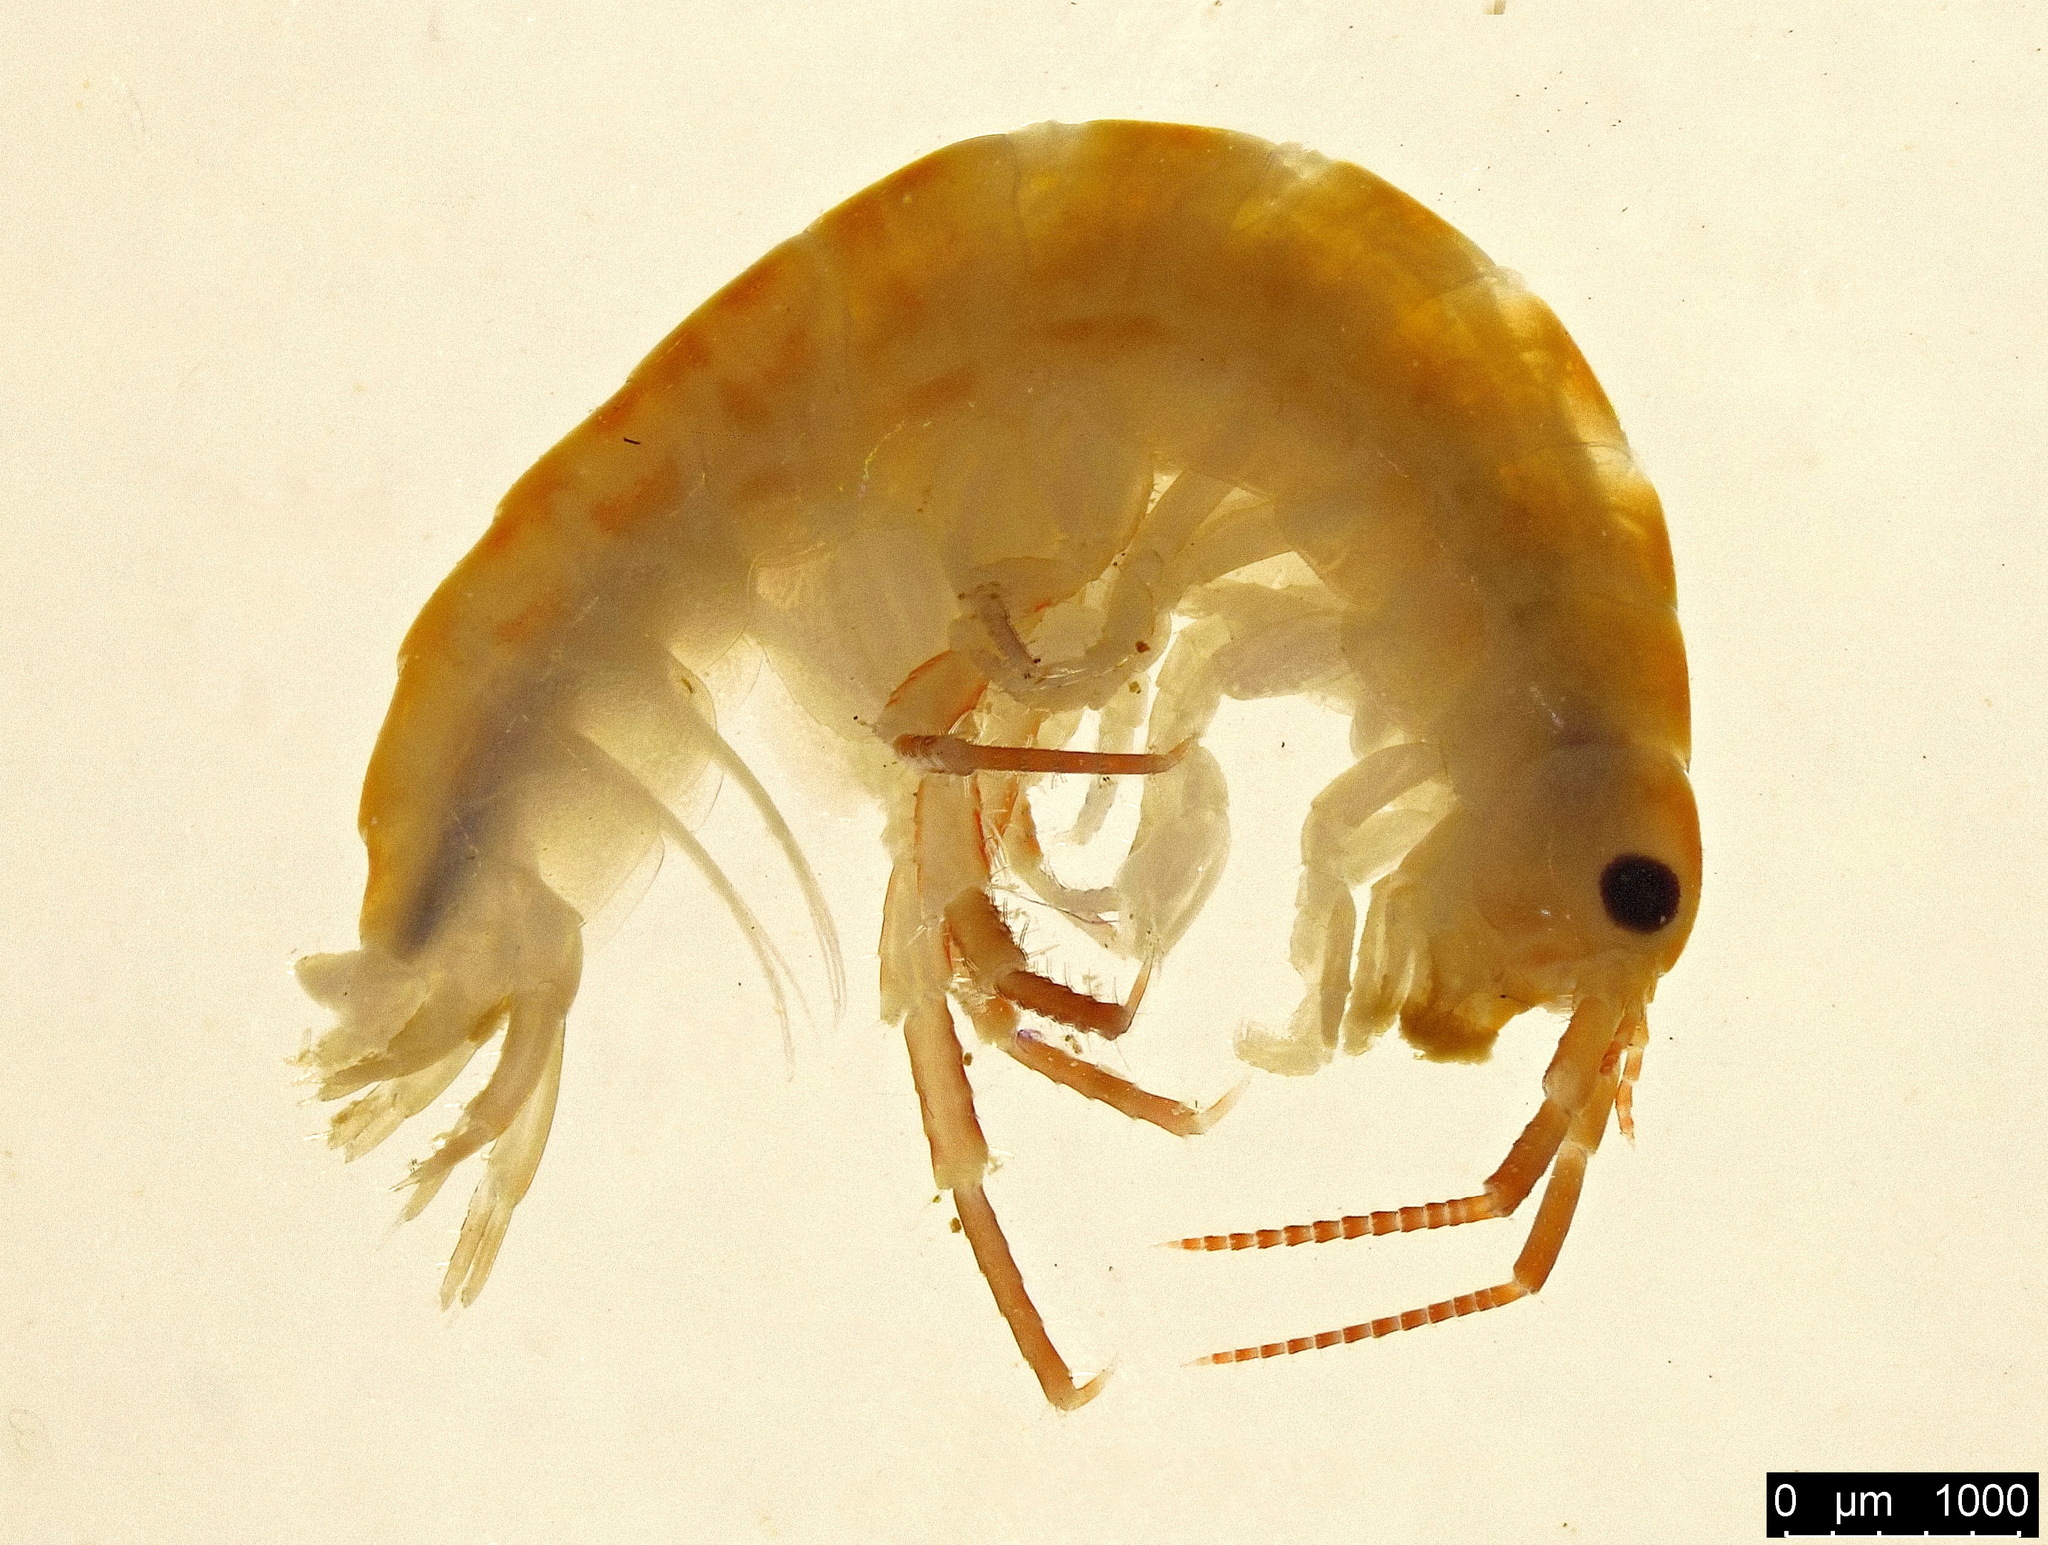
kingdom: Animalia
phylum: Arthropoda
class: Malacostraca
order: Amphipoda
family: Talitridae
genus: Orchestia
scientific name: Orchestia gammarellus
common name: Beach-flea
